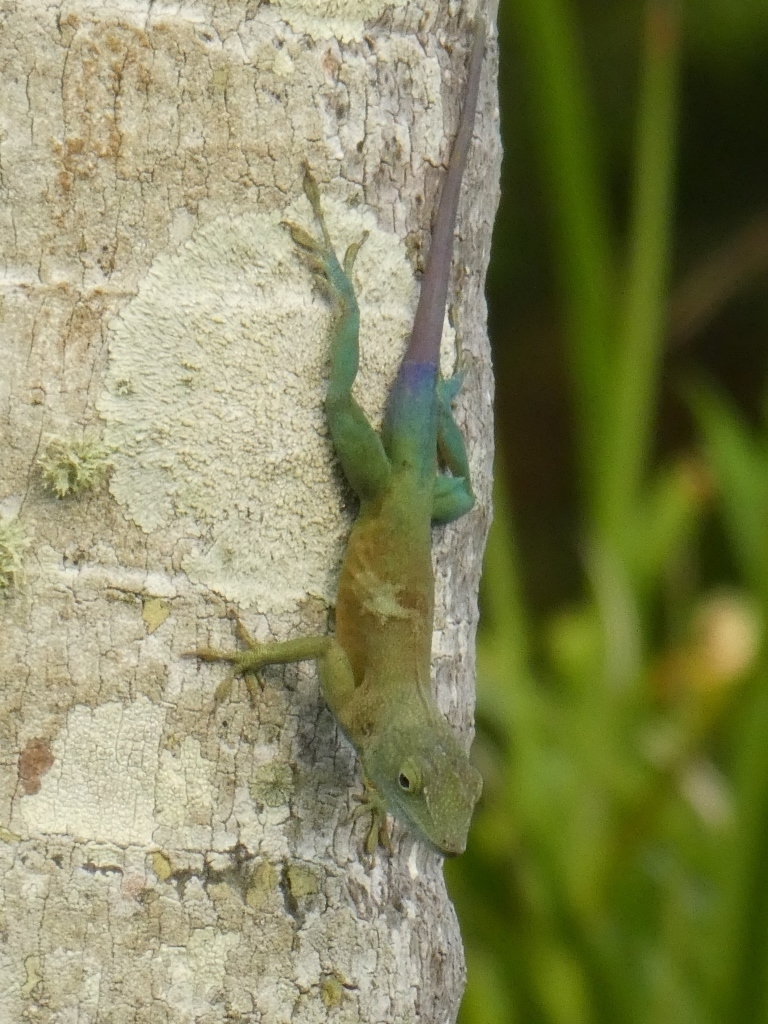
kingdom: Animalia
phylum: Chordata
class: Squamata
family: Dactyloidae
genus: Anolis
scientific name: Anolis grahami
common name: Graham's anole
